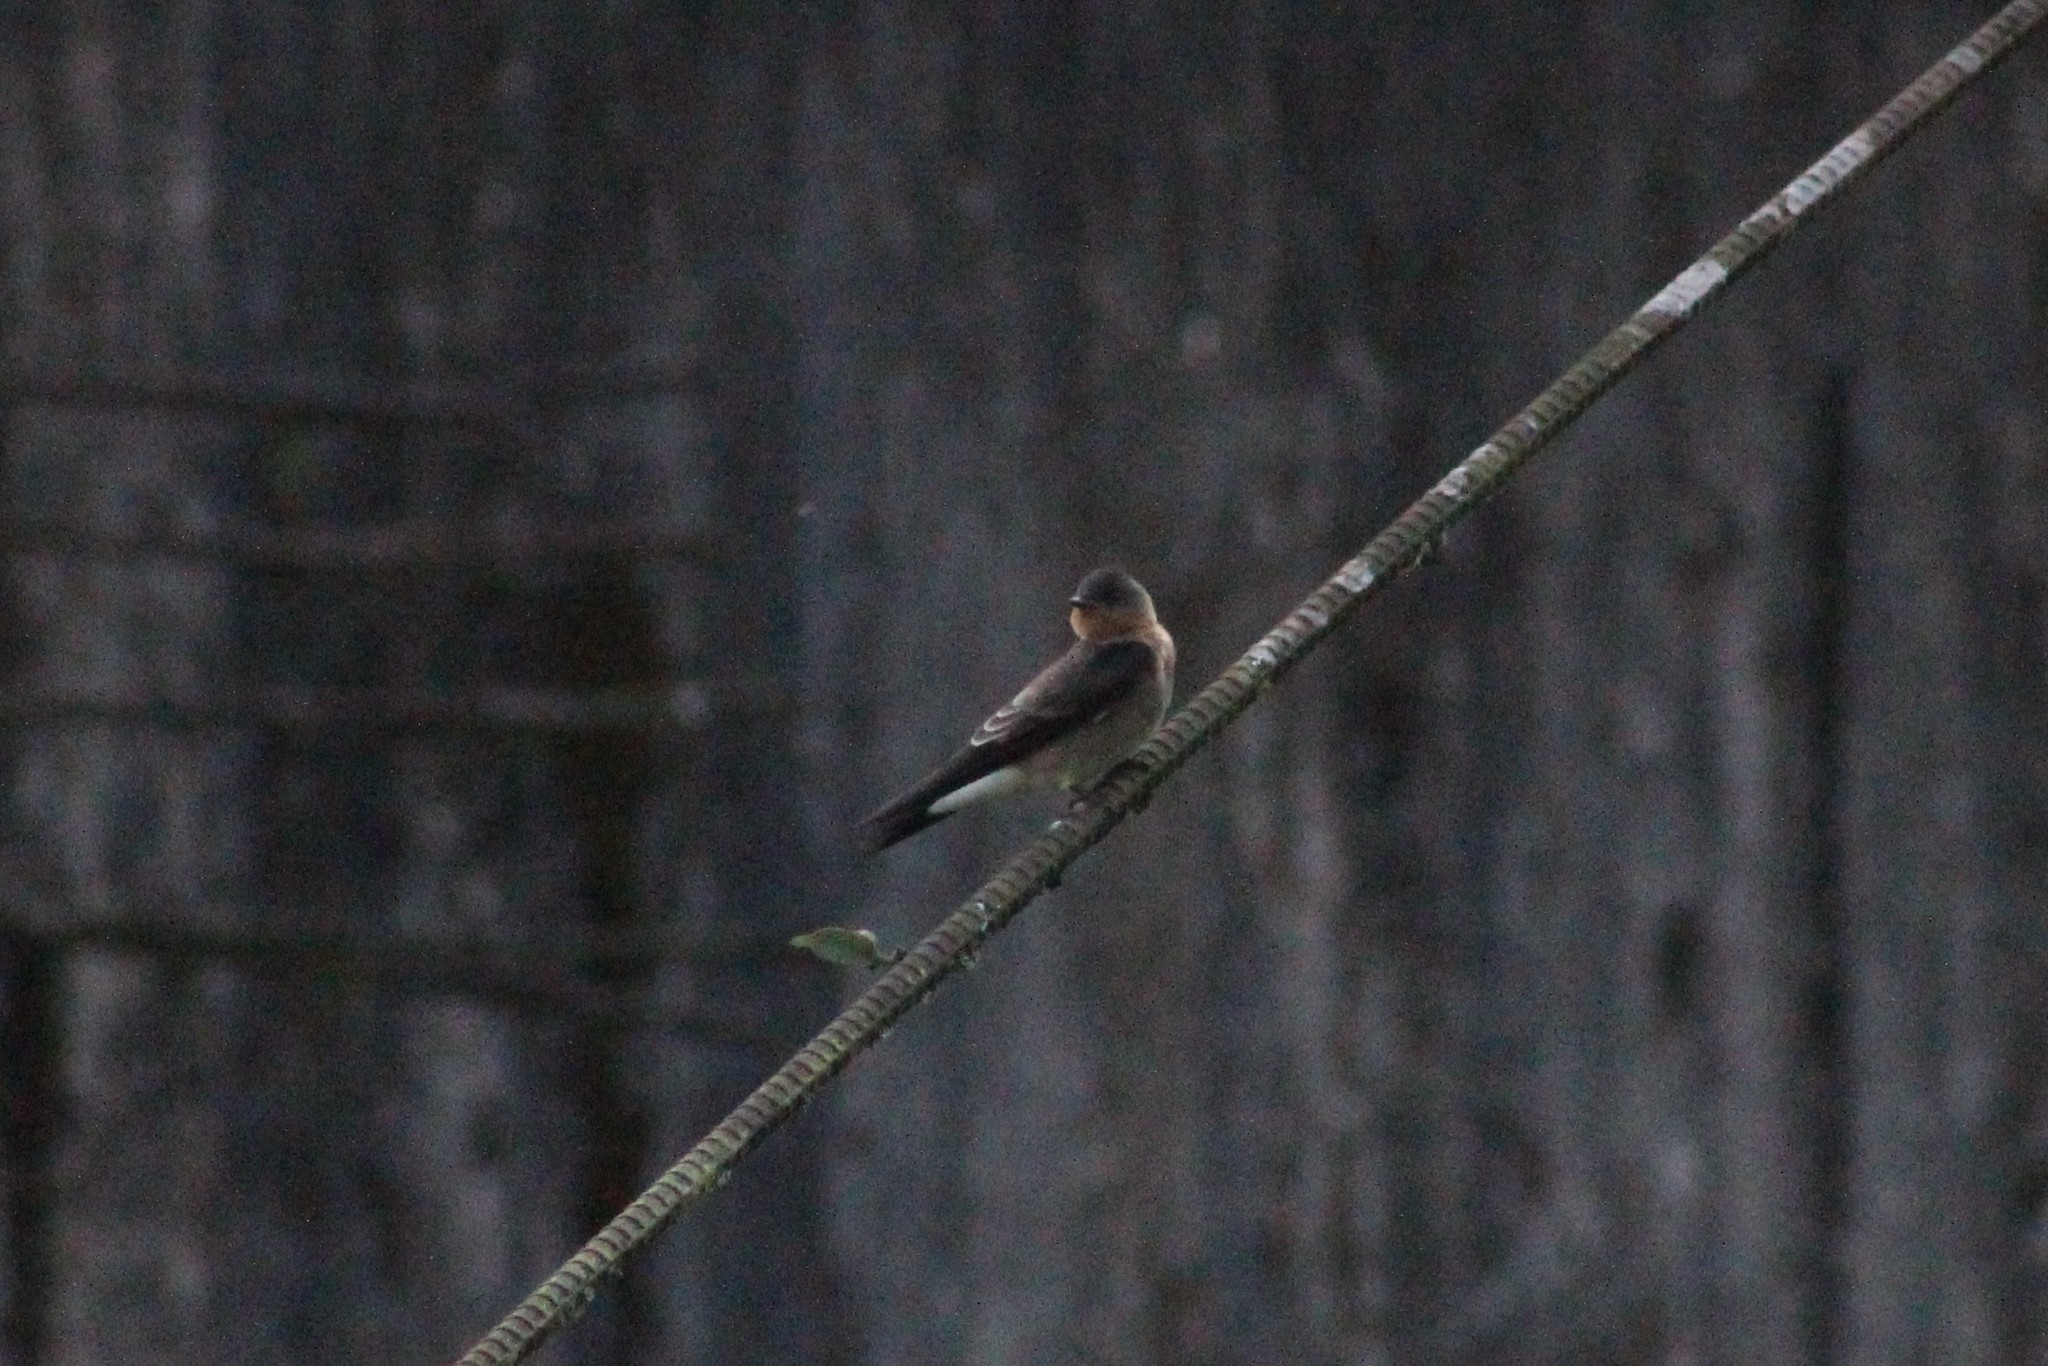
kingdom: Animalia
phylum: Chordata
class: Aves
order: Passeriformes
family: Hirundinidae
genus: Stelgidopteryx
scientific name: Stelgidopteryx ruficollis
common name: Southern rough-winged swallow
